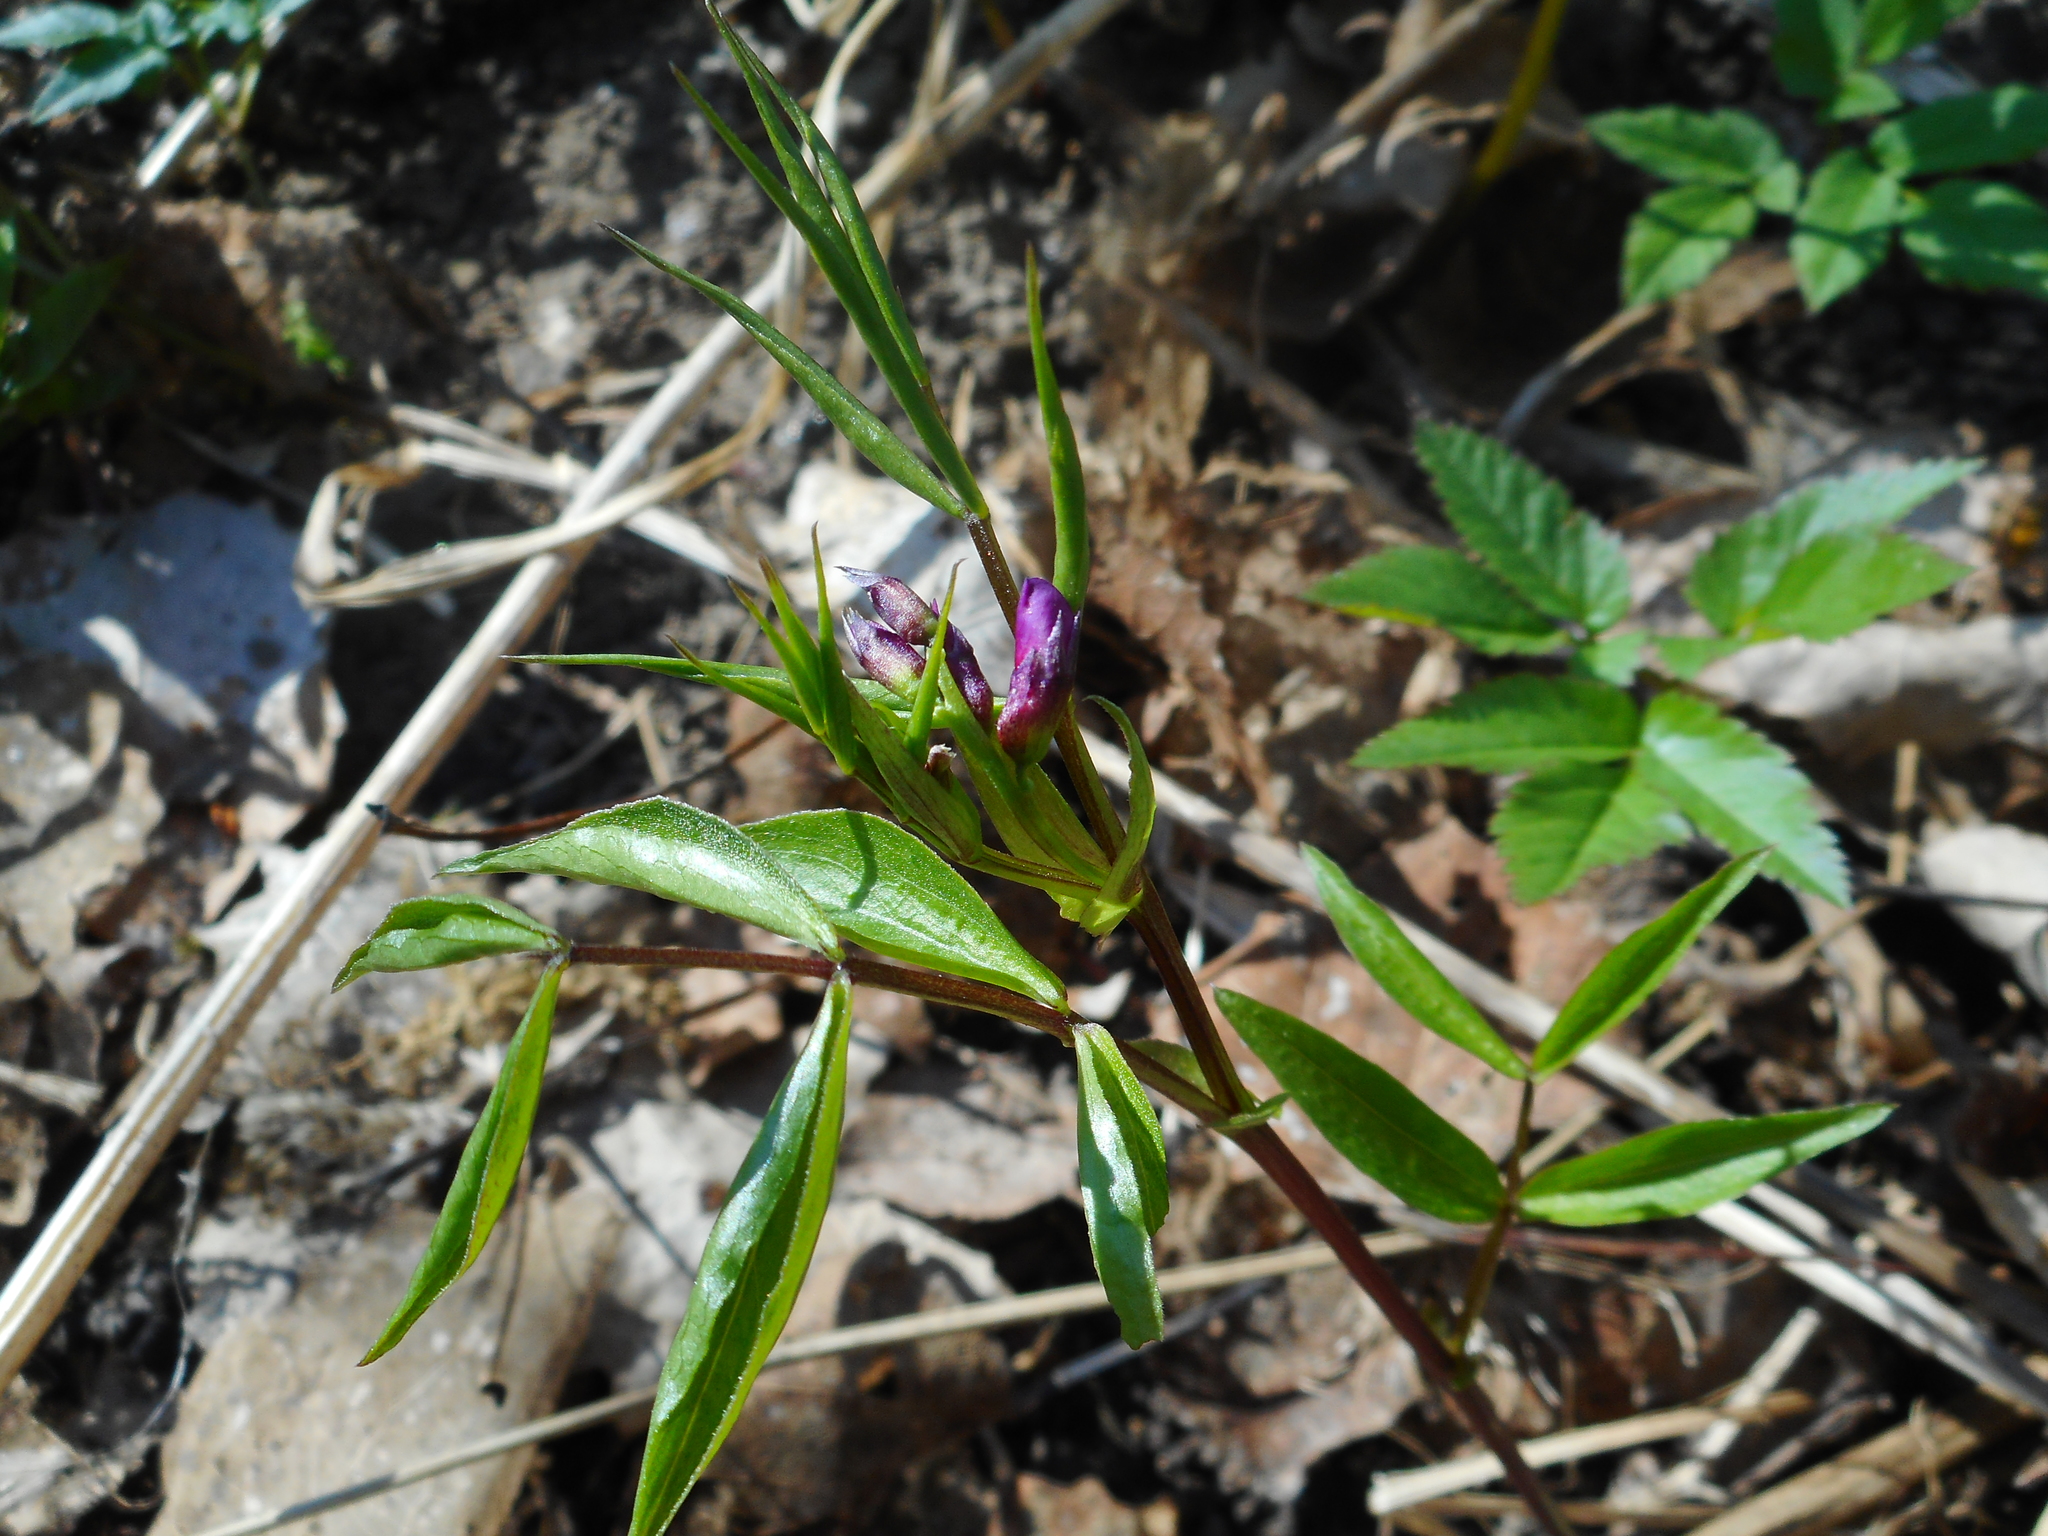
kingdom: Plantae
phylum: Tracheophyta
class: Magnoliopsida
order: Fabales
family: Fabaceae
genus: Lathyrus
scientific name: Lathyrus vernus
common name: Spring pea
